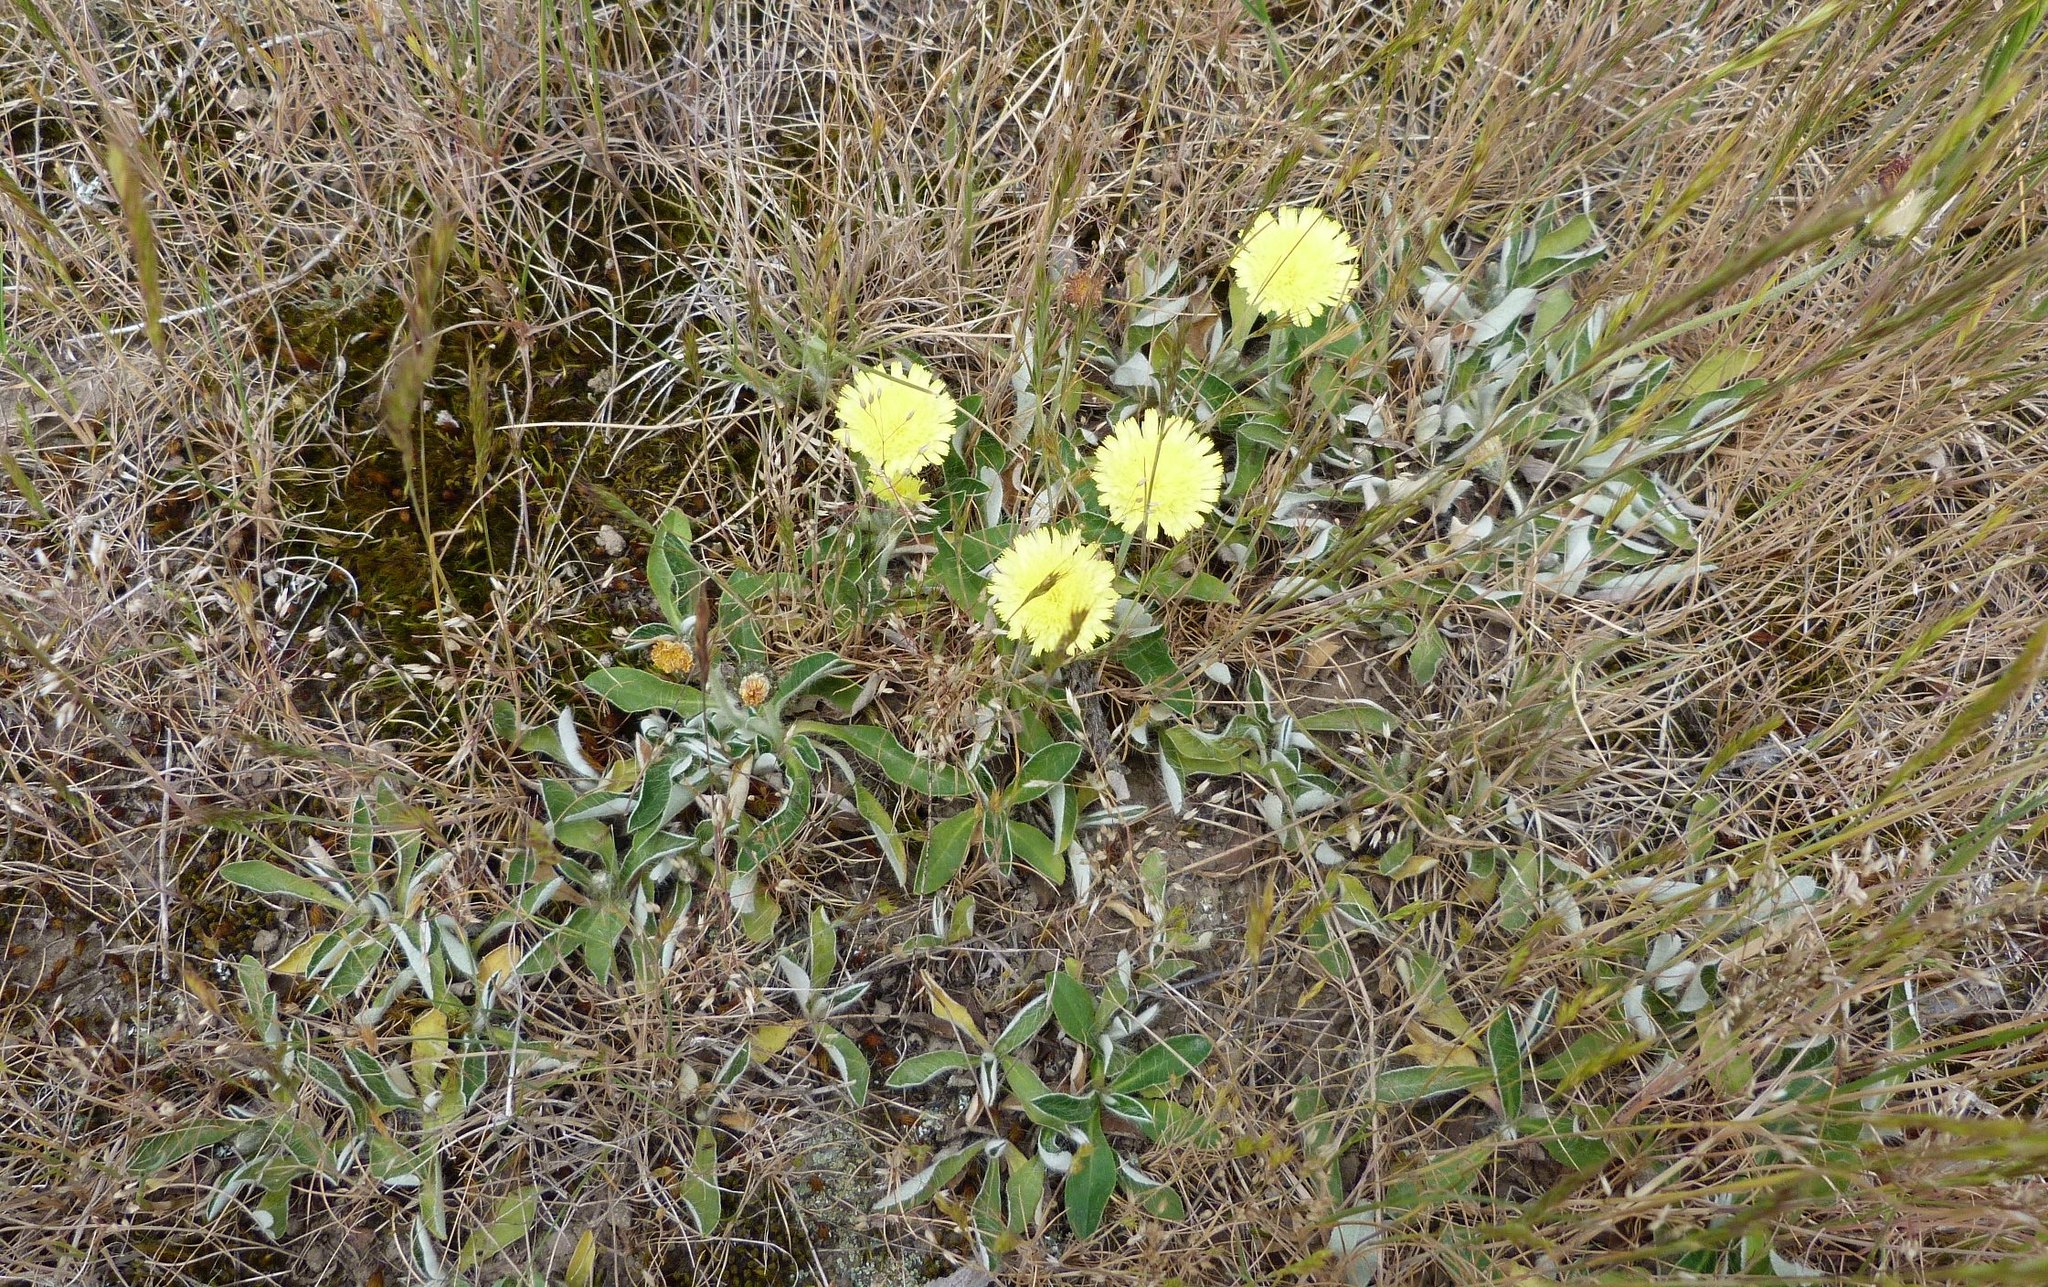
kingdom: Plantae
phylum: Tracheophyta
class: Magnoliopsida
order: Asterales
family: Asteraceae
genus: Pilosella
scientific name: Pilosella officinarum
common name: Mouse-ear hawkweed
